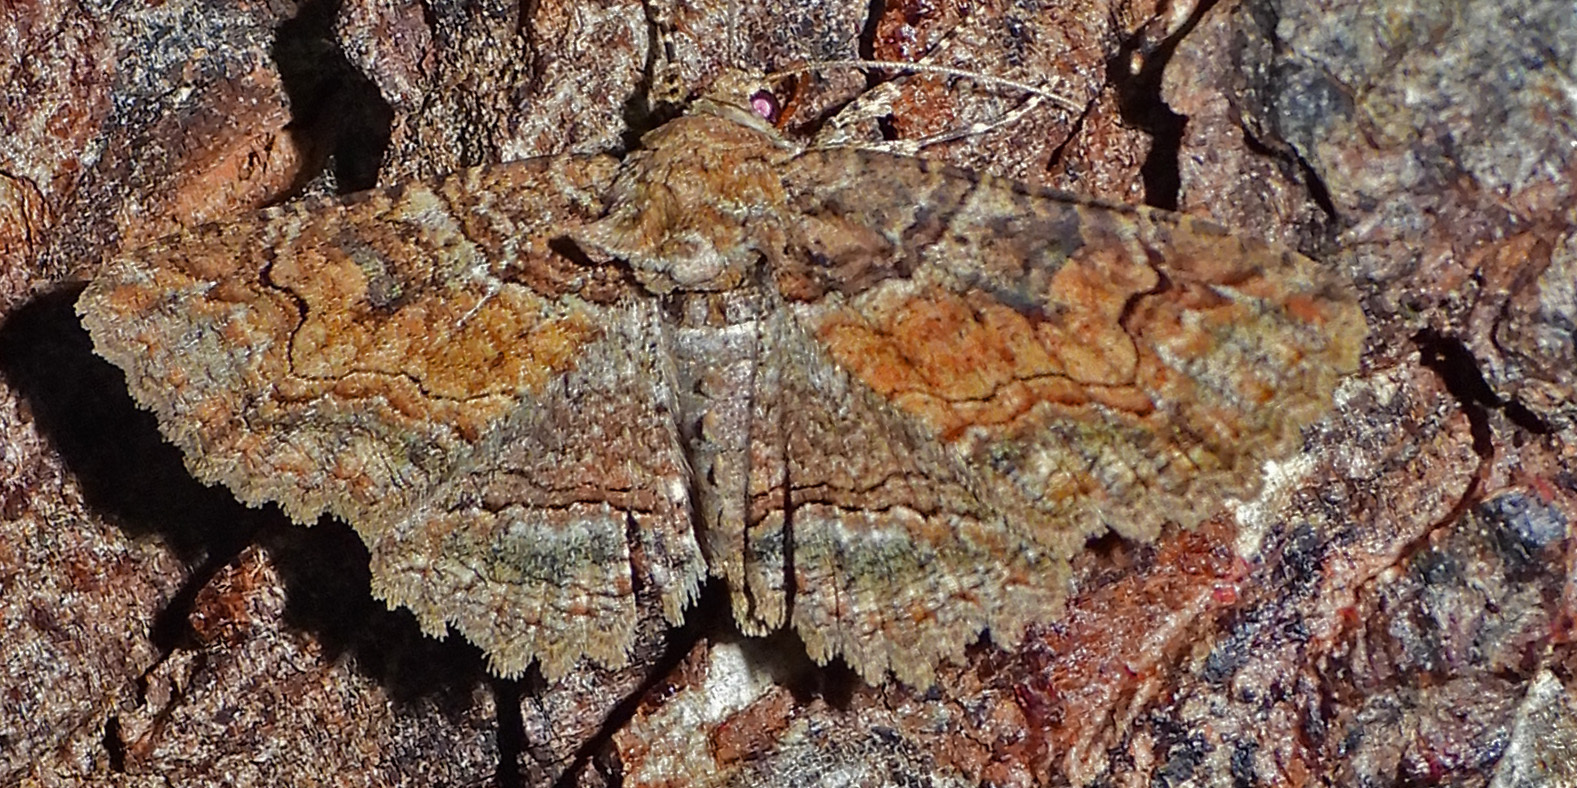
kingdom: Animalia
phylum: Arthropoda
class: Insecta
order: Lepidoptera
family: Erebidae
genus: Zale
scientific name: Zale galbanata
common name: Maple zale
